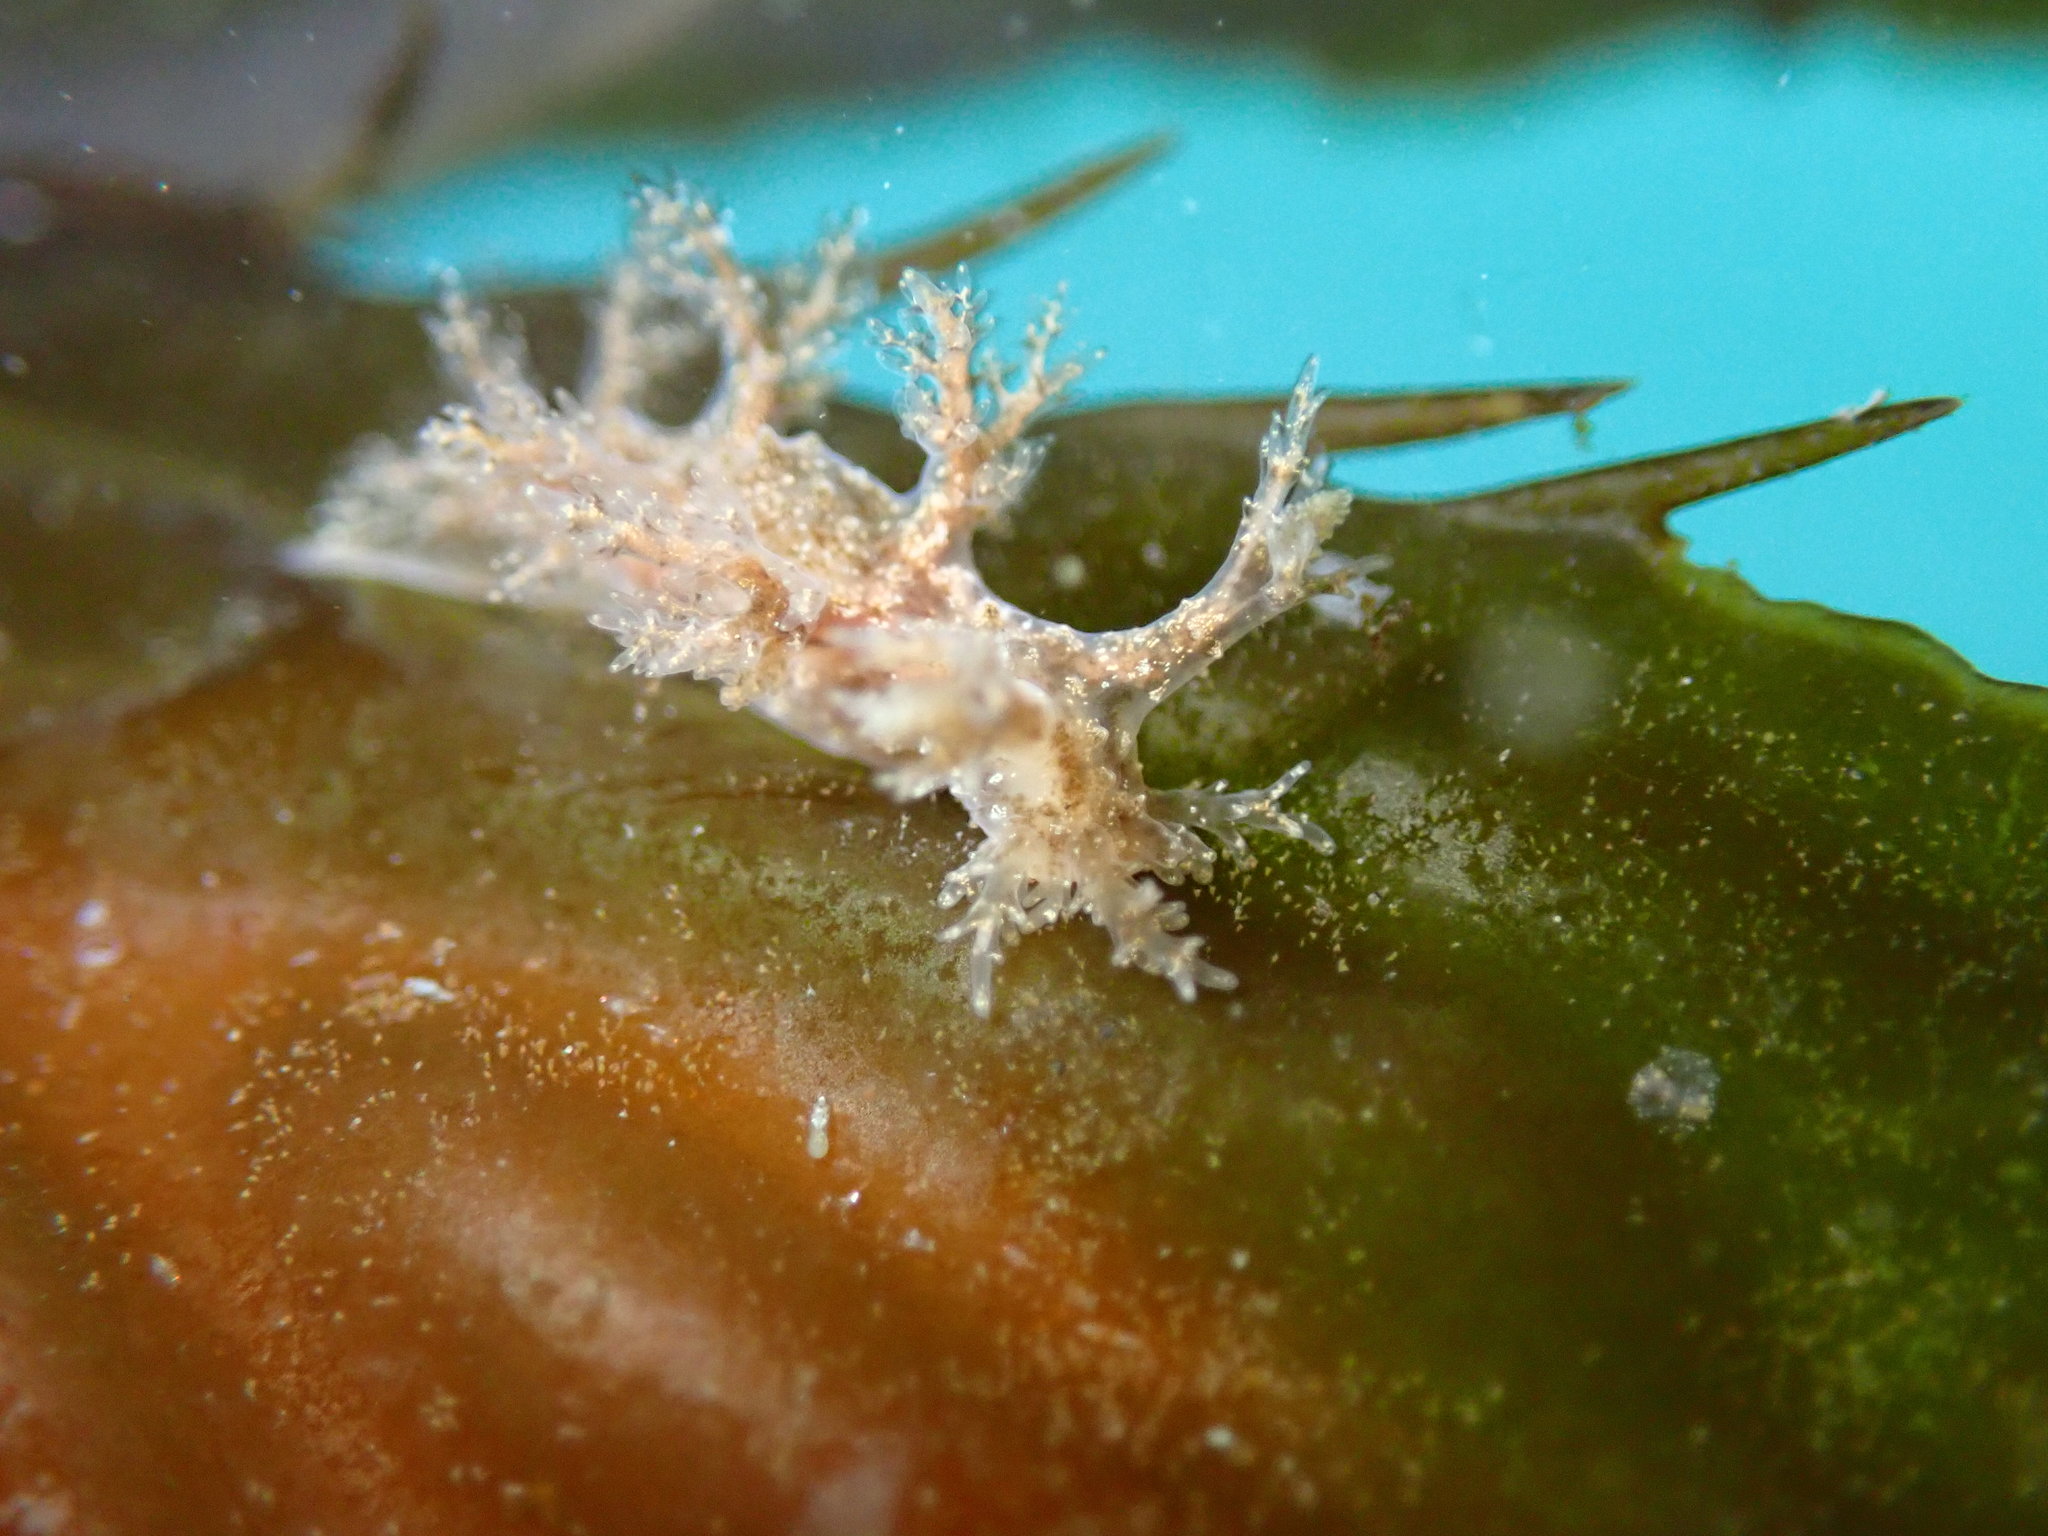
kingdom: Animalia
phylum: Mollusca
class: Gastropoda
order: Nudibranchia
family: Dendronotidae
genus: Dendronotus
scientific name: Dendronotus venustus
